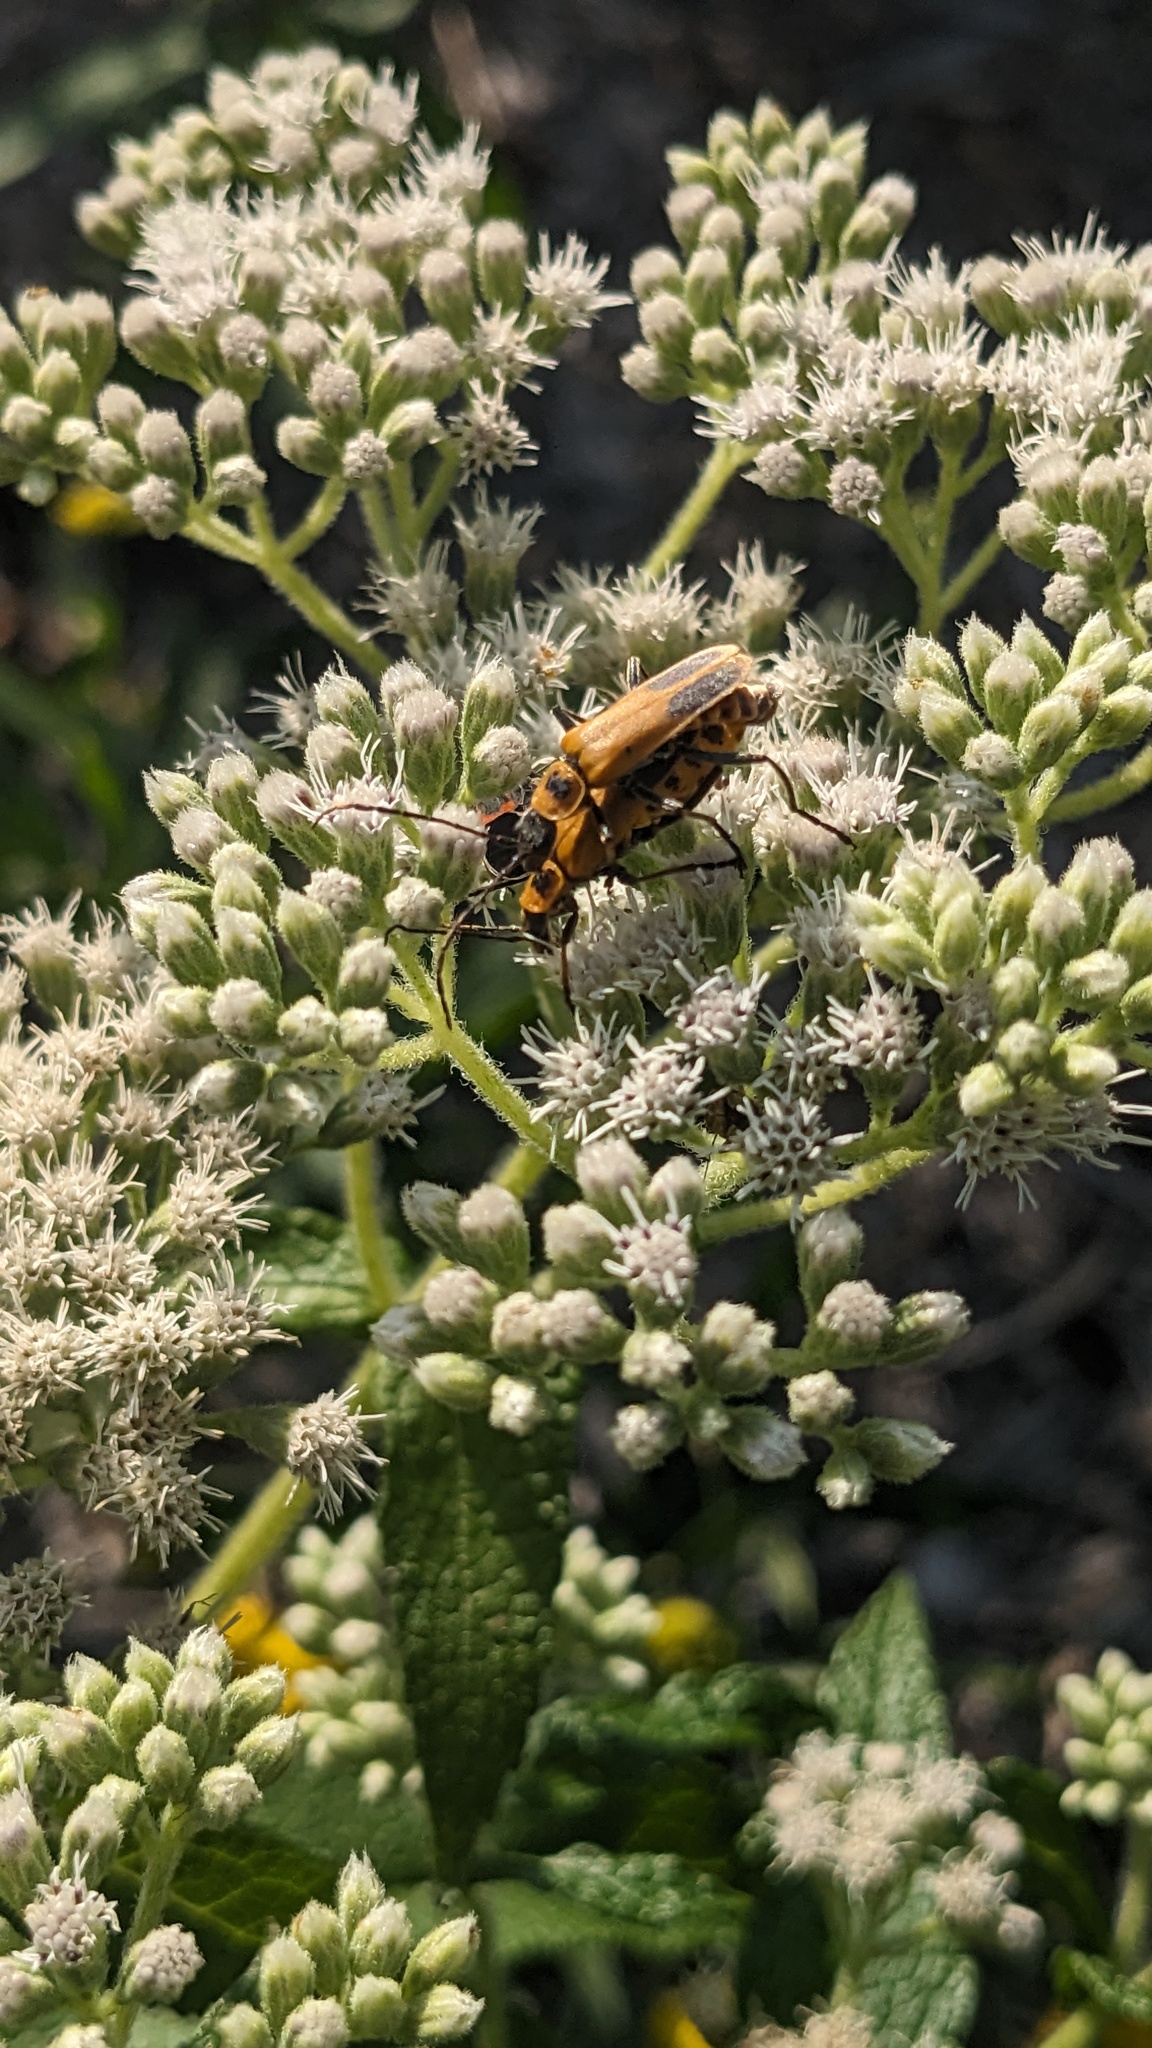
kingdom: Animalia
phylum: Arthropoda
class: Insecta
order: Coleoptera
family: Cantharidae
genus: Chauliognathus
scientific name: Chauliognathus pensylvanicus
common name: Goldenrod soldier beetle
